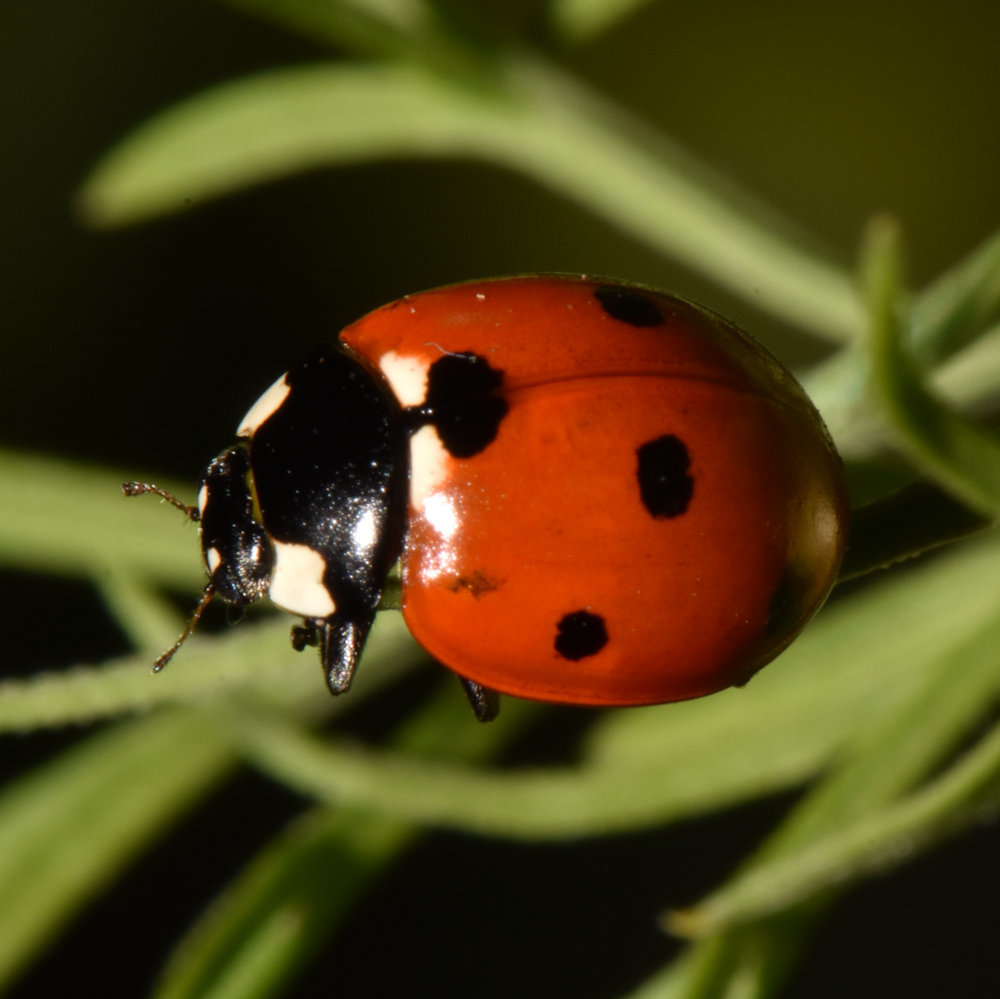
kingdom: Animalia
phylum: Arthropoda
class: Insecta
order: Coleoptera
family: Coccinellidae
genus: Coccinella
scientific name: Coccinella septempunctata
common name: Sevenspotted lady beetle
